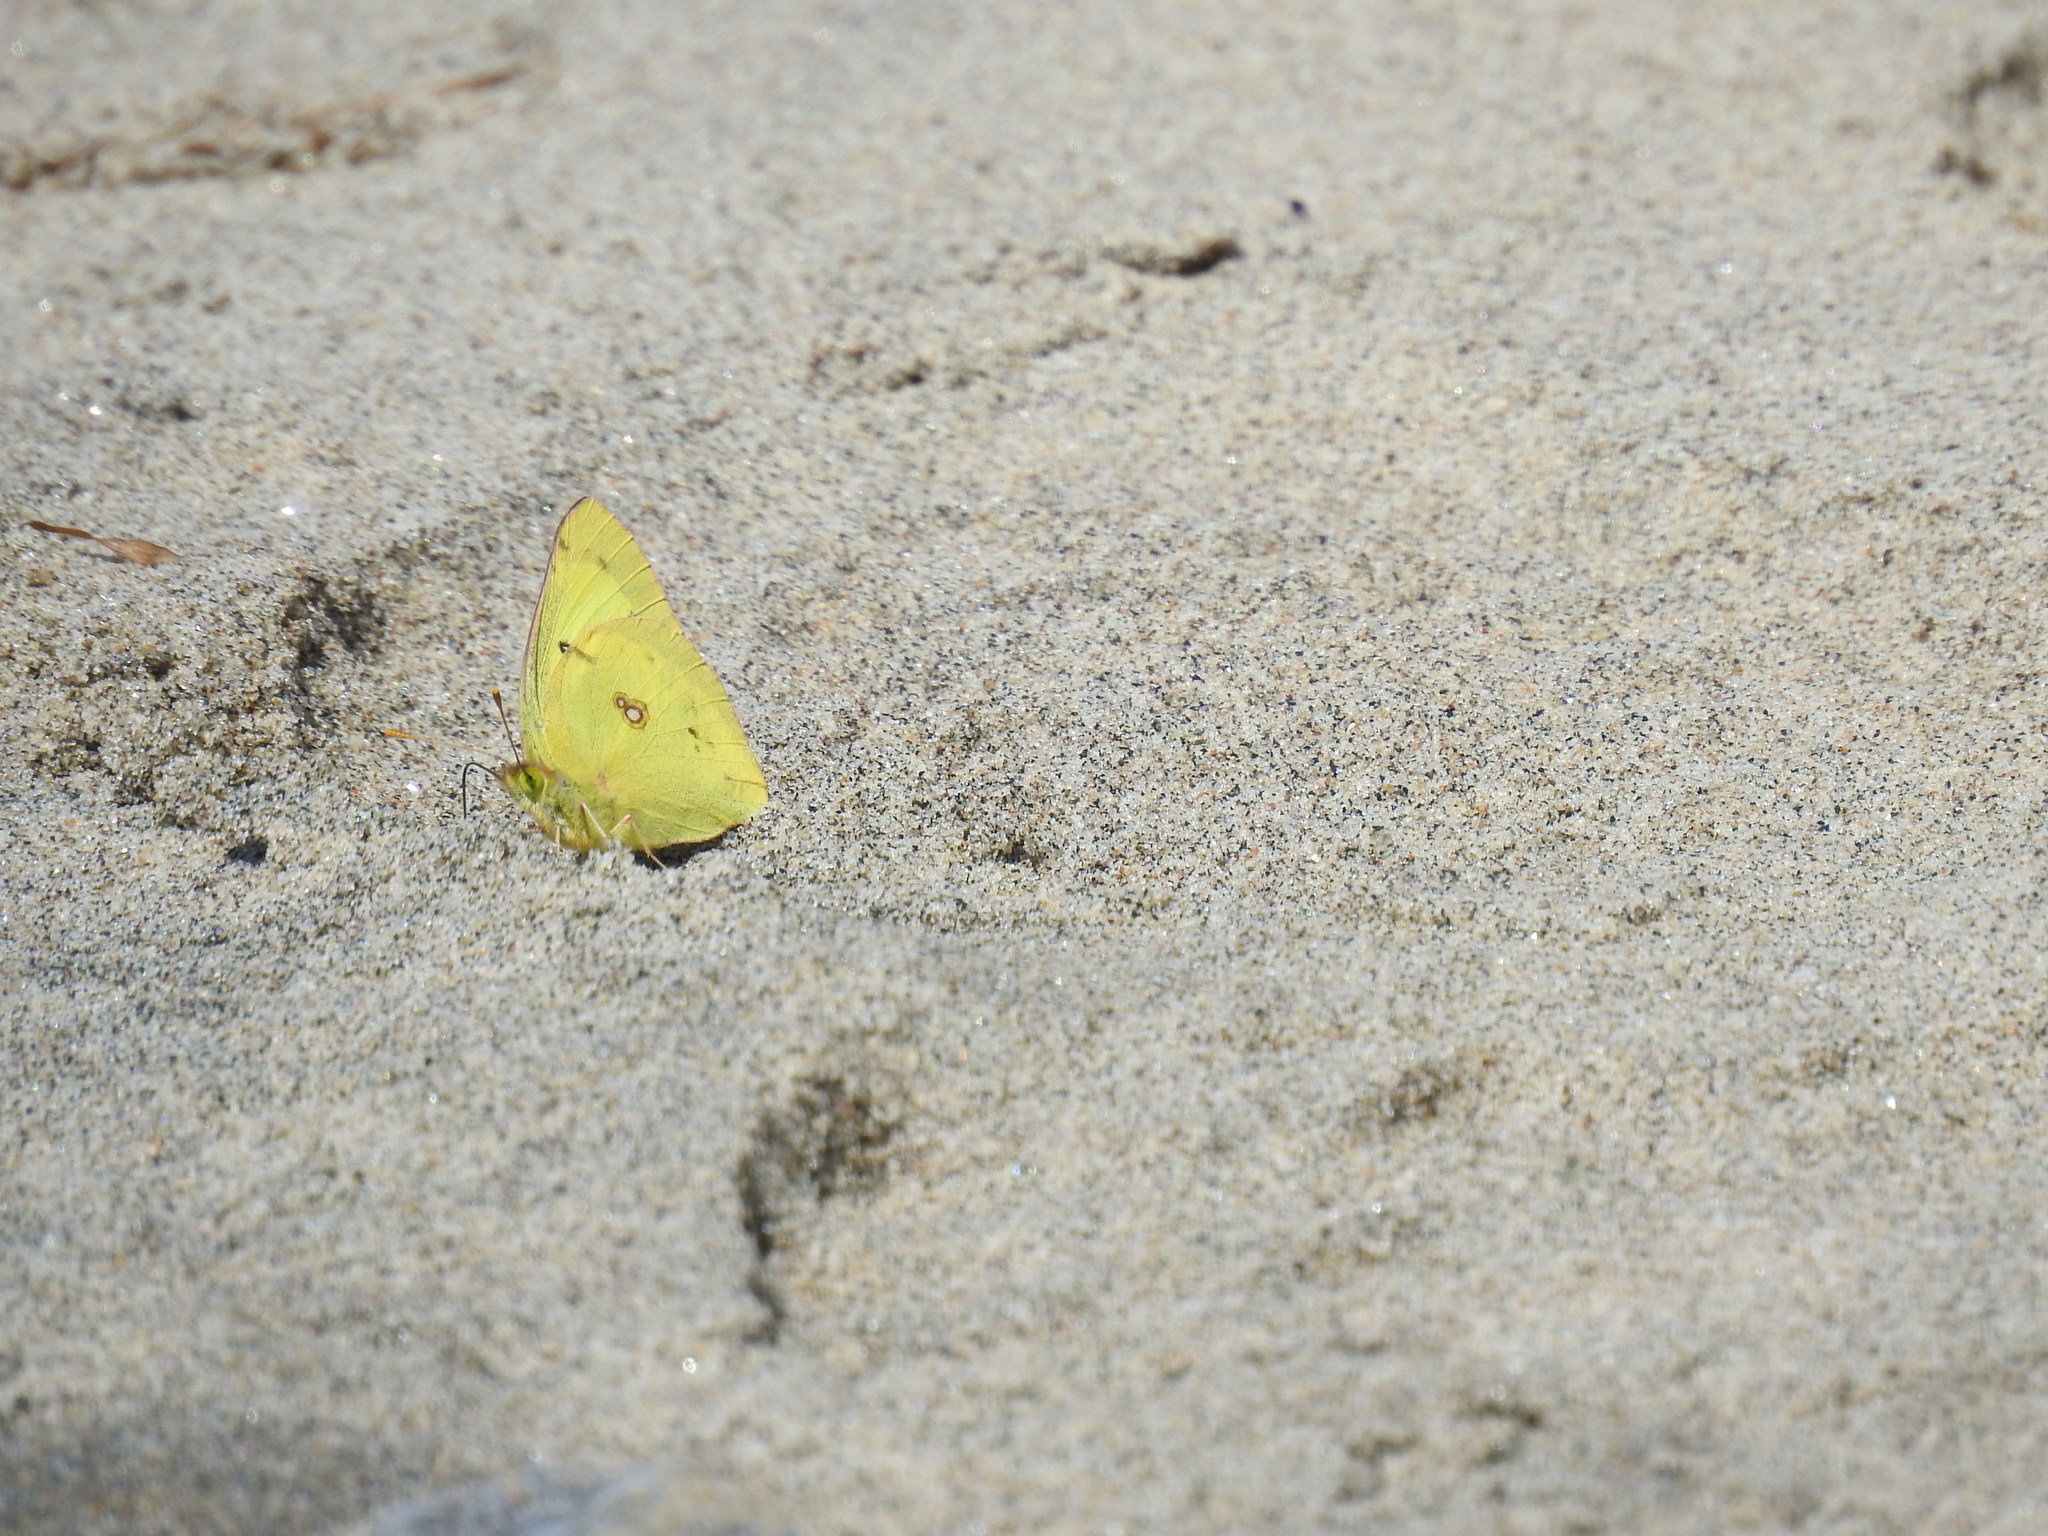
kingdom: Animalia
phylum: Arthropoda
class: Insecta
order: Lepidoptera
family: Pieridae
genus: Colias
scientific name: Colias philodice
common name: Clouded sulphur
